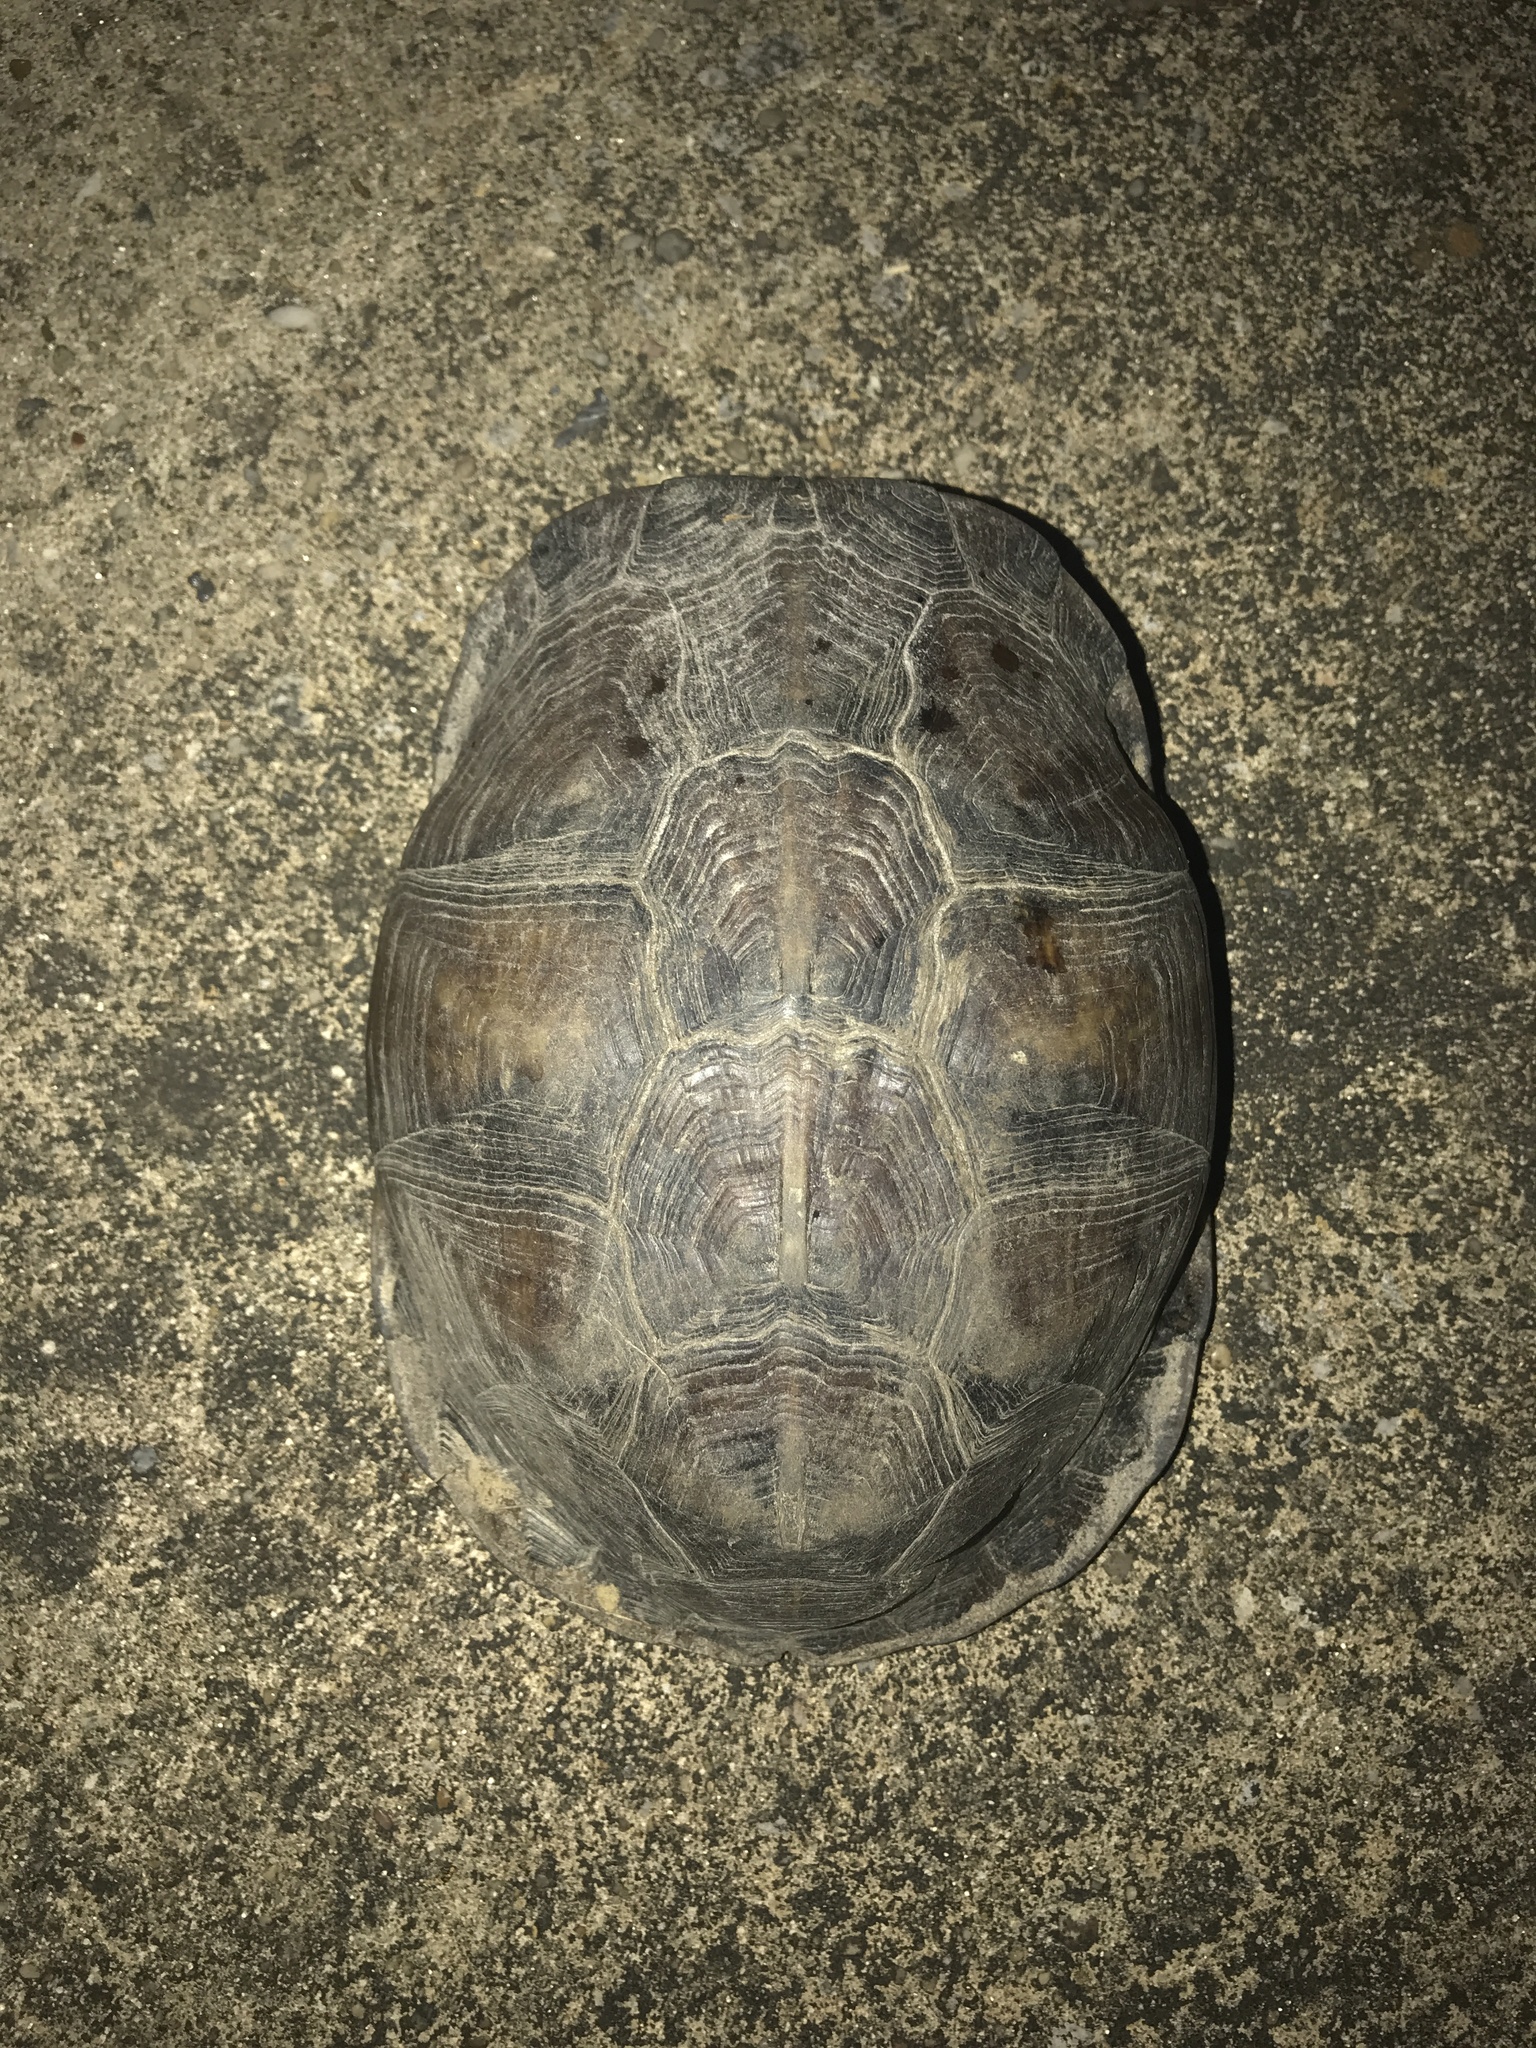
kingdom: Animalia
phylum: Chordata
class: Testudines
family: Emydidae
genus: Terrapene
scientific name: Terrapene carolina
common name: Common box turtle
